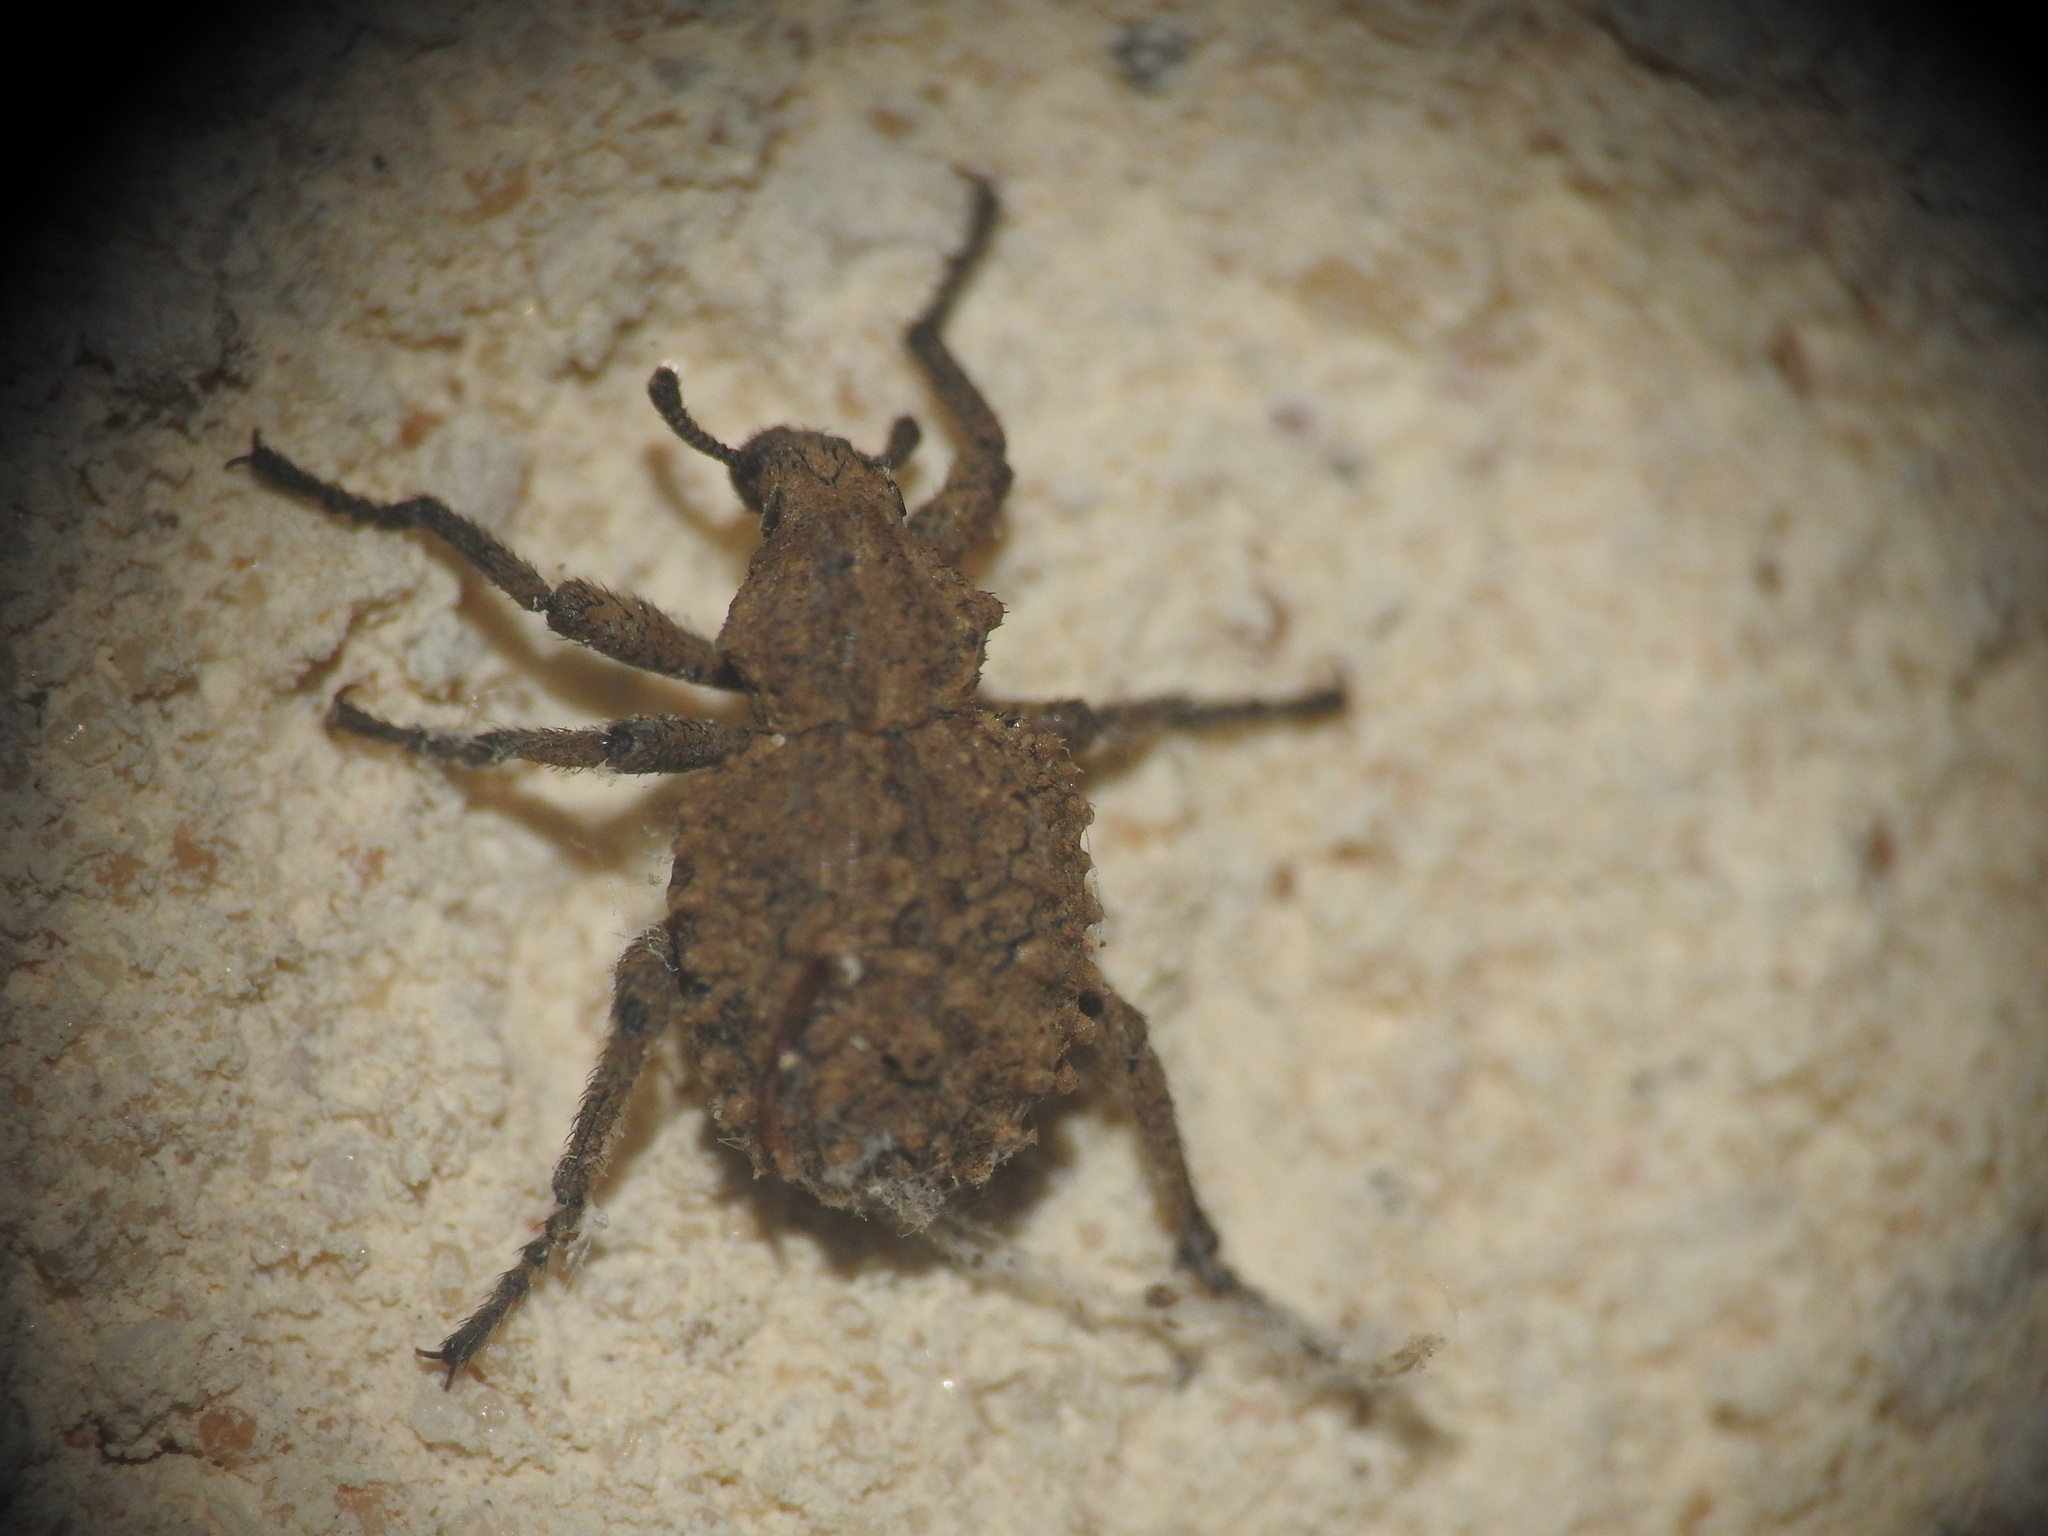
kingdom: Animalia
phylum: Arthropoda
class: Insecta
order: Coleoptera
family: Brachyceridae
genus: Brachycerus
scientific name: Brachycerus muricatus
